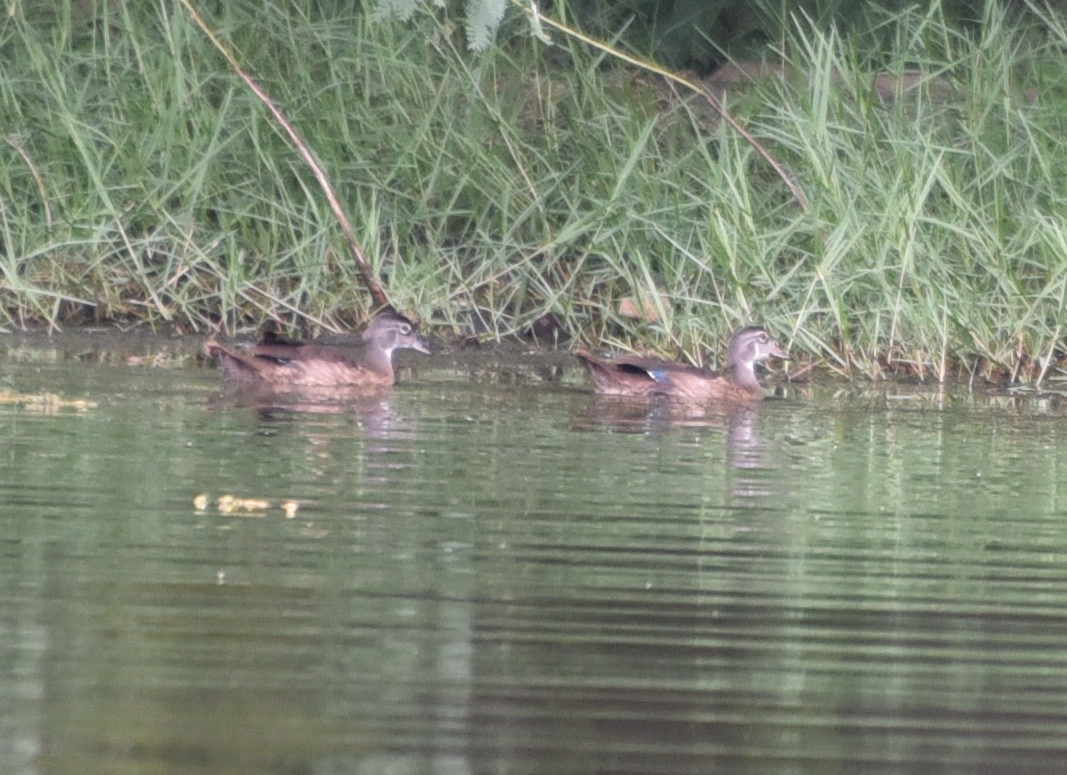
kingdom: Animalia
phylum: Chordata
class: Aves
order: Anseriformes
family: Anatidae
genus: Aix
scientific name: Aix sponsa
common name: Wood duck
